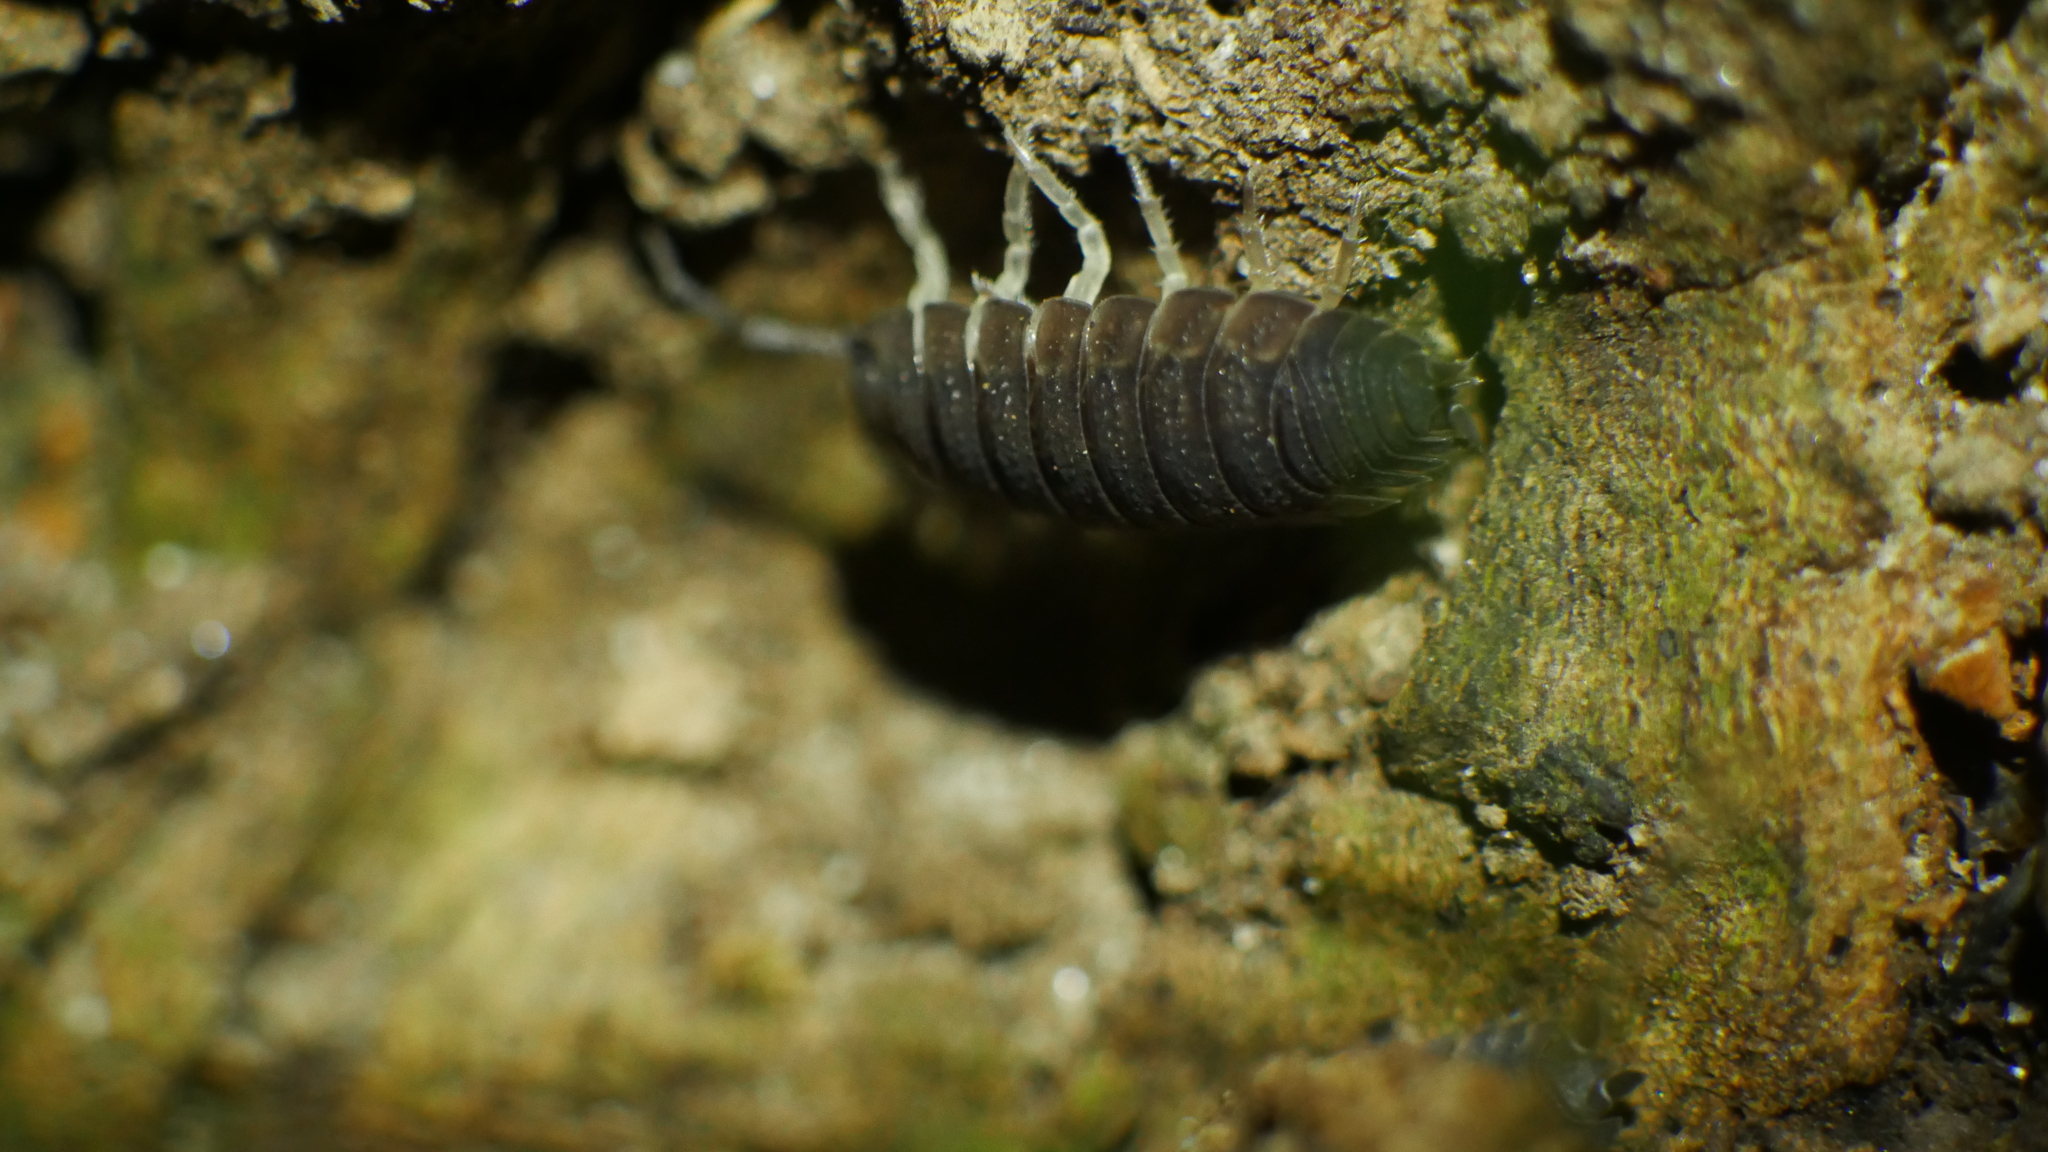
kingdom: Animalia
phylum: Arthropoda
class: Malacostraca
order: Isopoda
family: Porcellionidae
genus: Porcellio
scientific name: Porcellio scaber
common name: Common rough woodlouse
